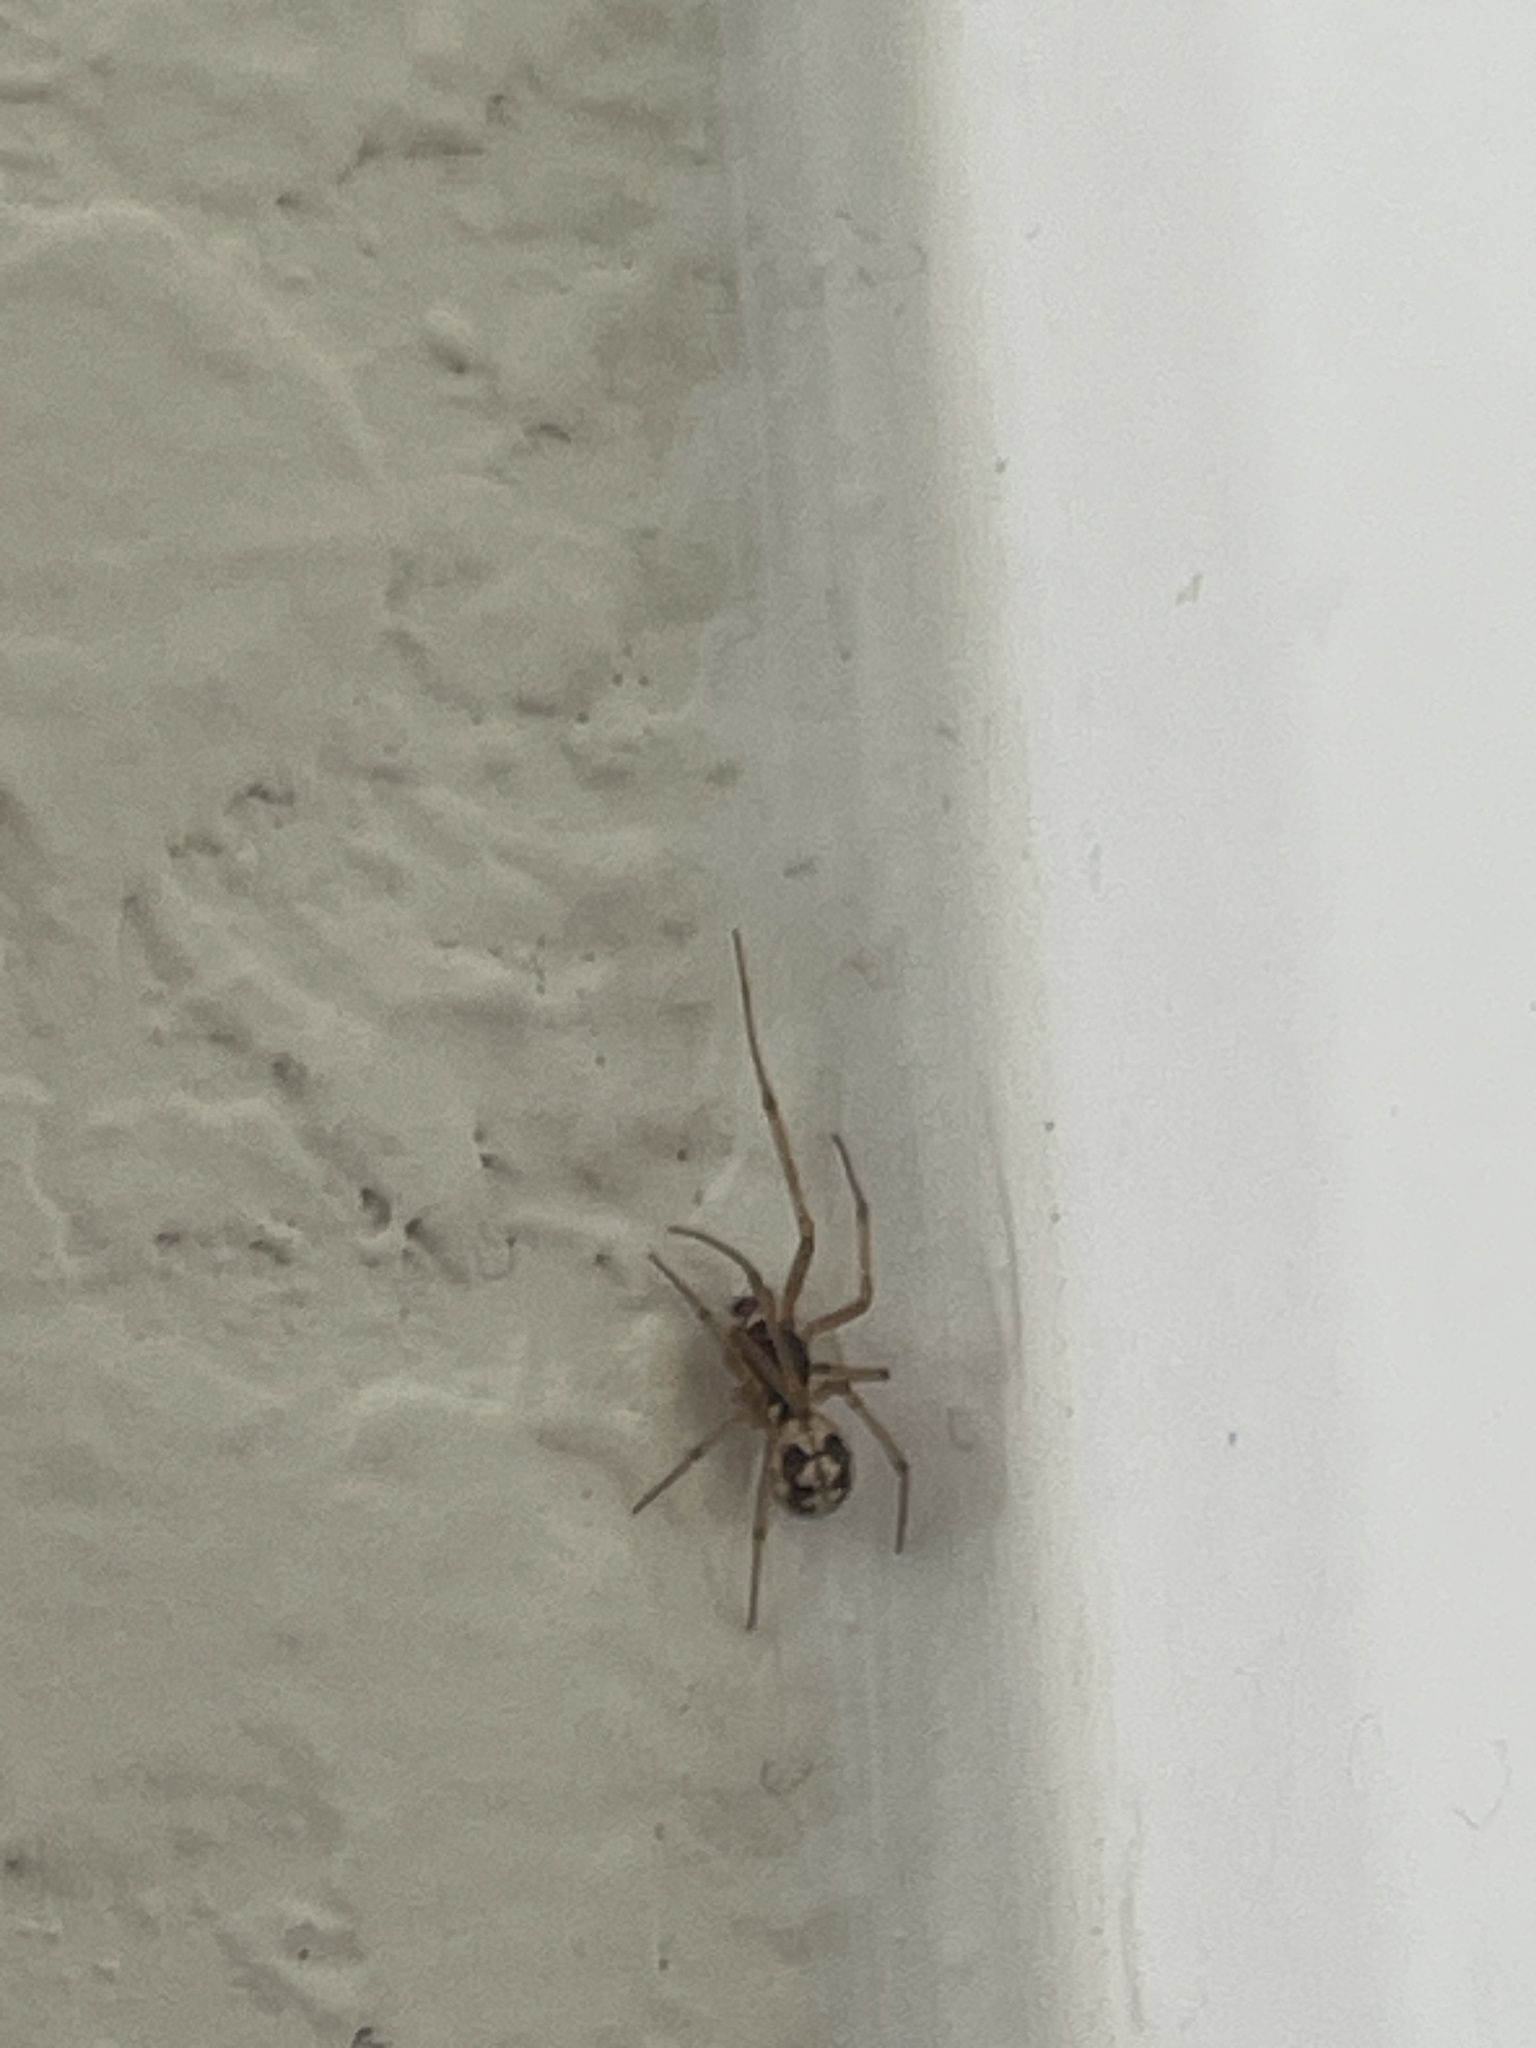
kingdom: Animalia
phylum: Arthropoda
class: Arachnida
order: Araneae
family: Theridiidae
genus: Steatoda
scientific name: Steatoda triangulosa
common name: Triangulate bud spider
